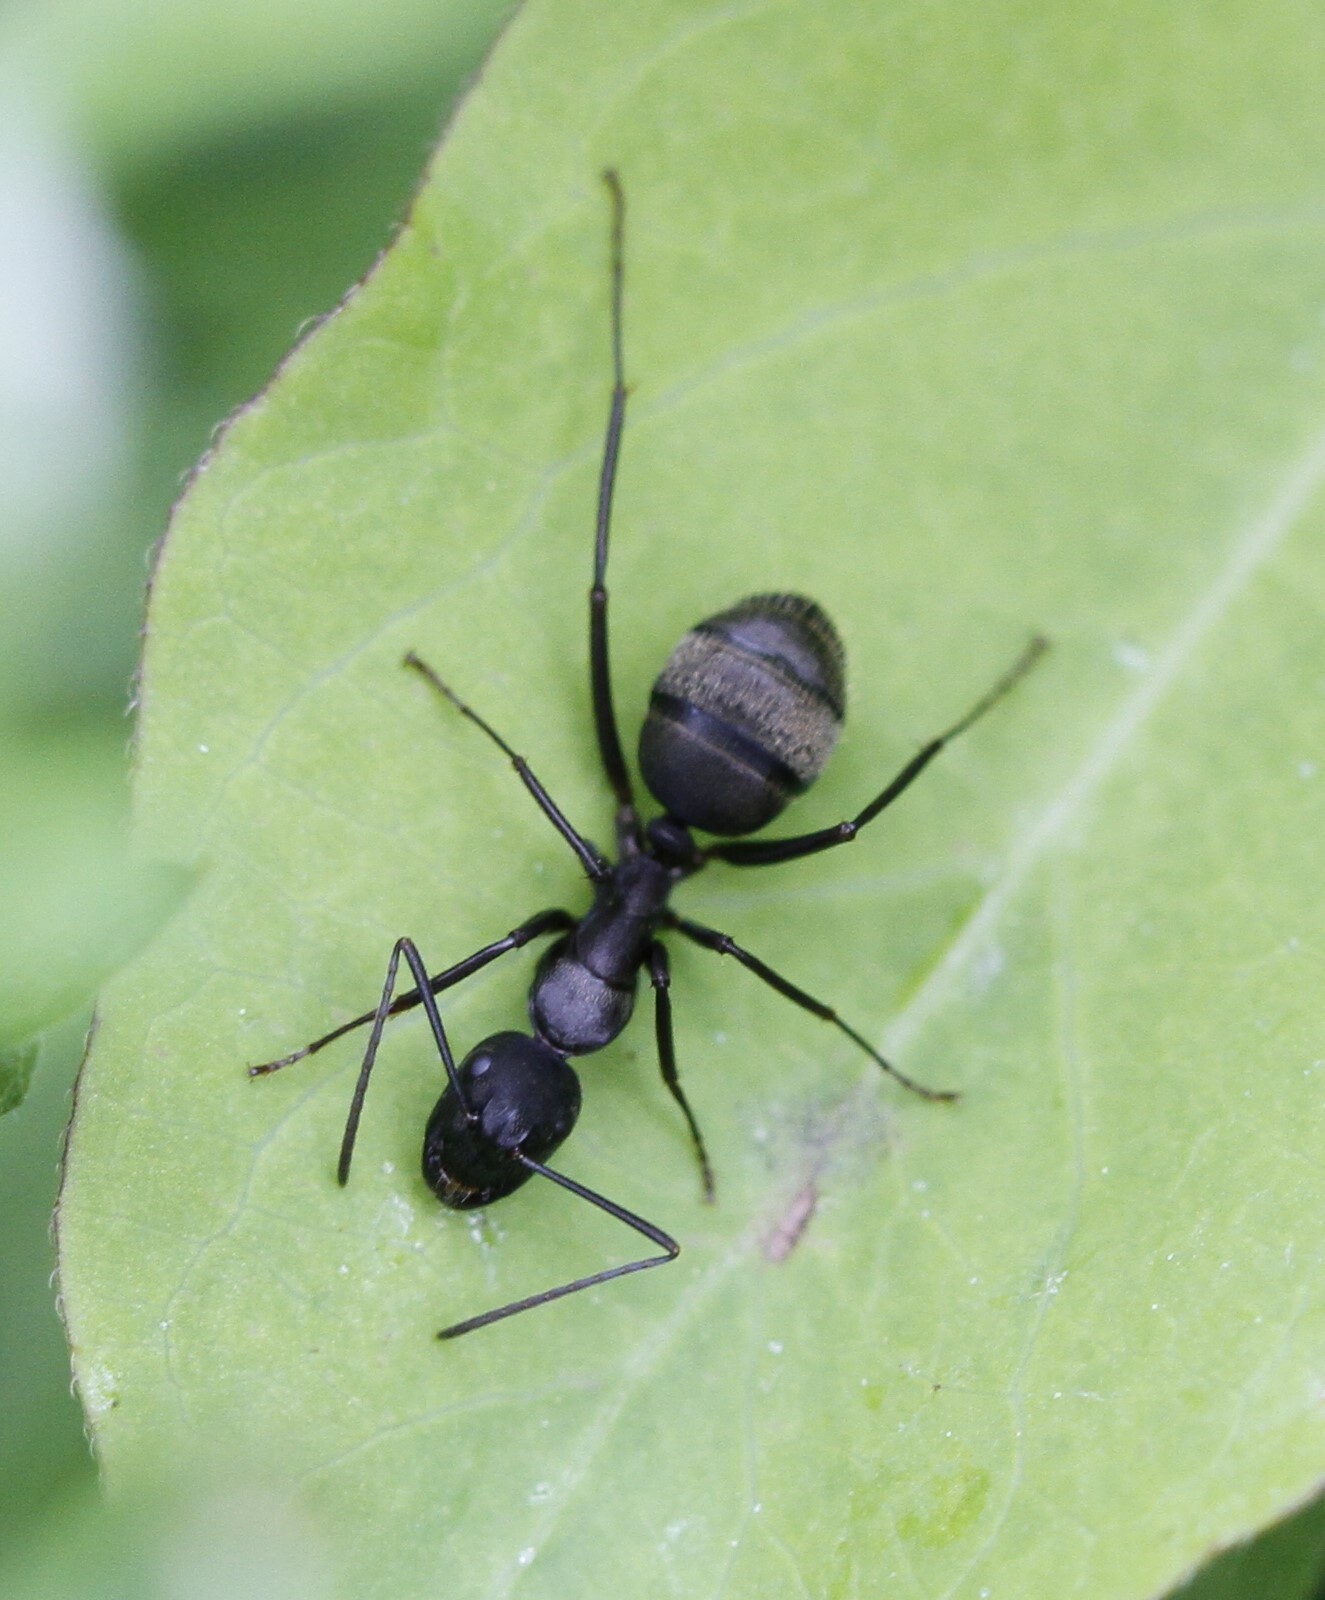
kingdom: Animalia
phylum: Arthropoda
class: Insecta
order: Hymenoptera
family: Formicidae
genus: Camponotus
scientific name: Camponotus pennsylvanicus
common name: Black carpenter ant
